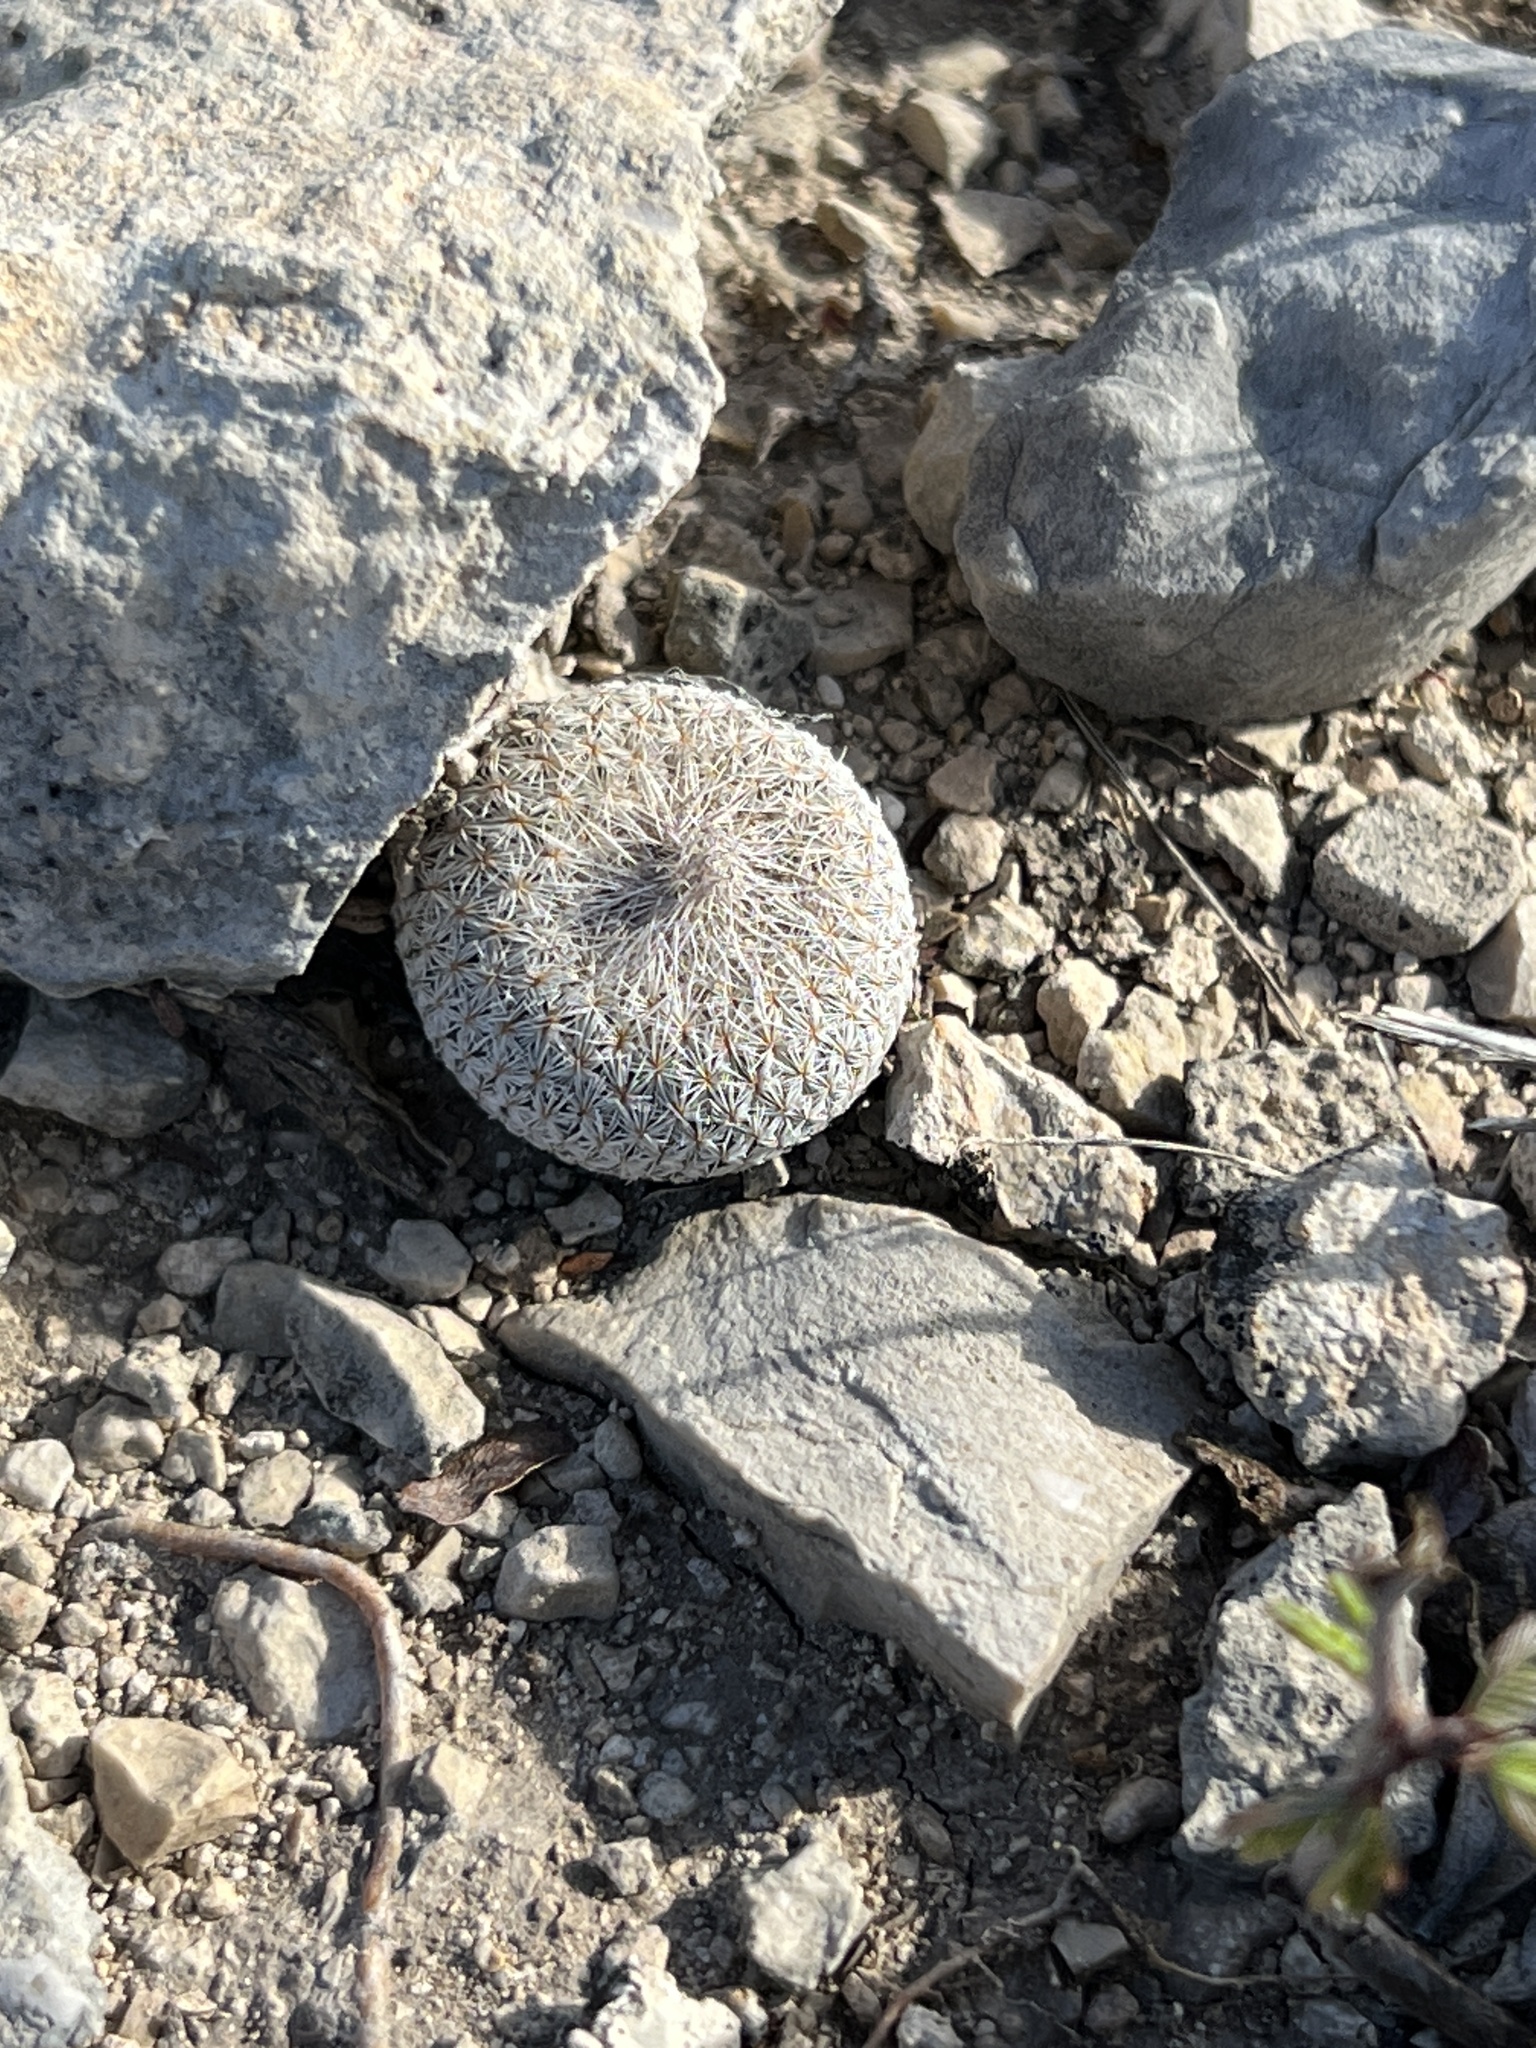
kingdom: Plantae
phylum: Tracheophyta
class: Magnoliopsida
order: Caryophyllales
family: Cactaceae
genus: Epithelantha
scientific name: Epithelantha micromeris
